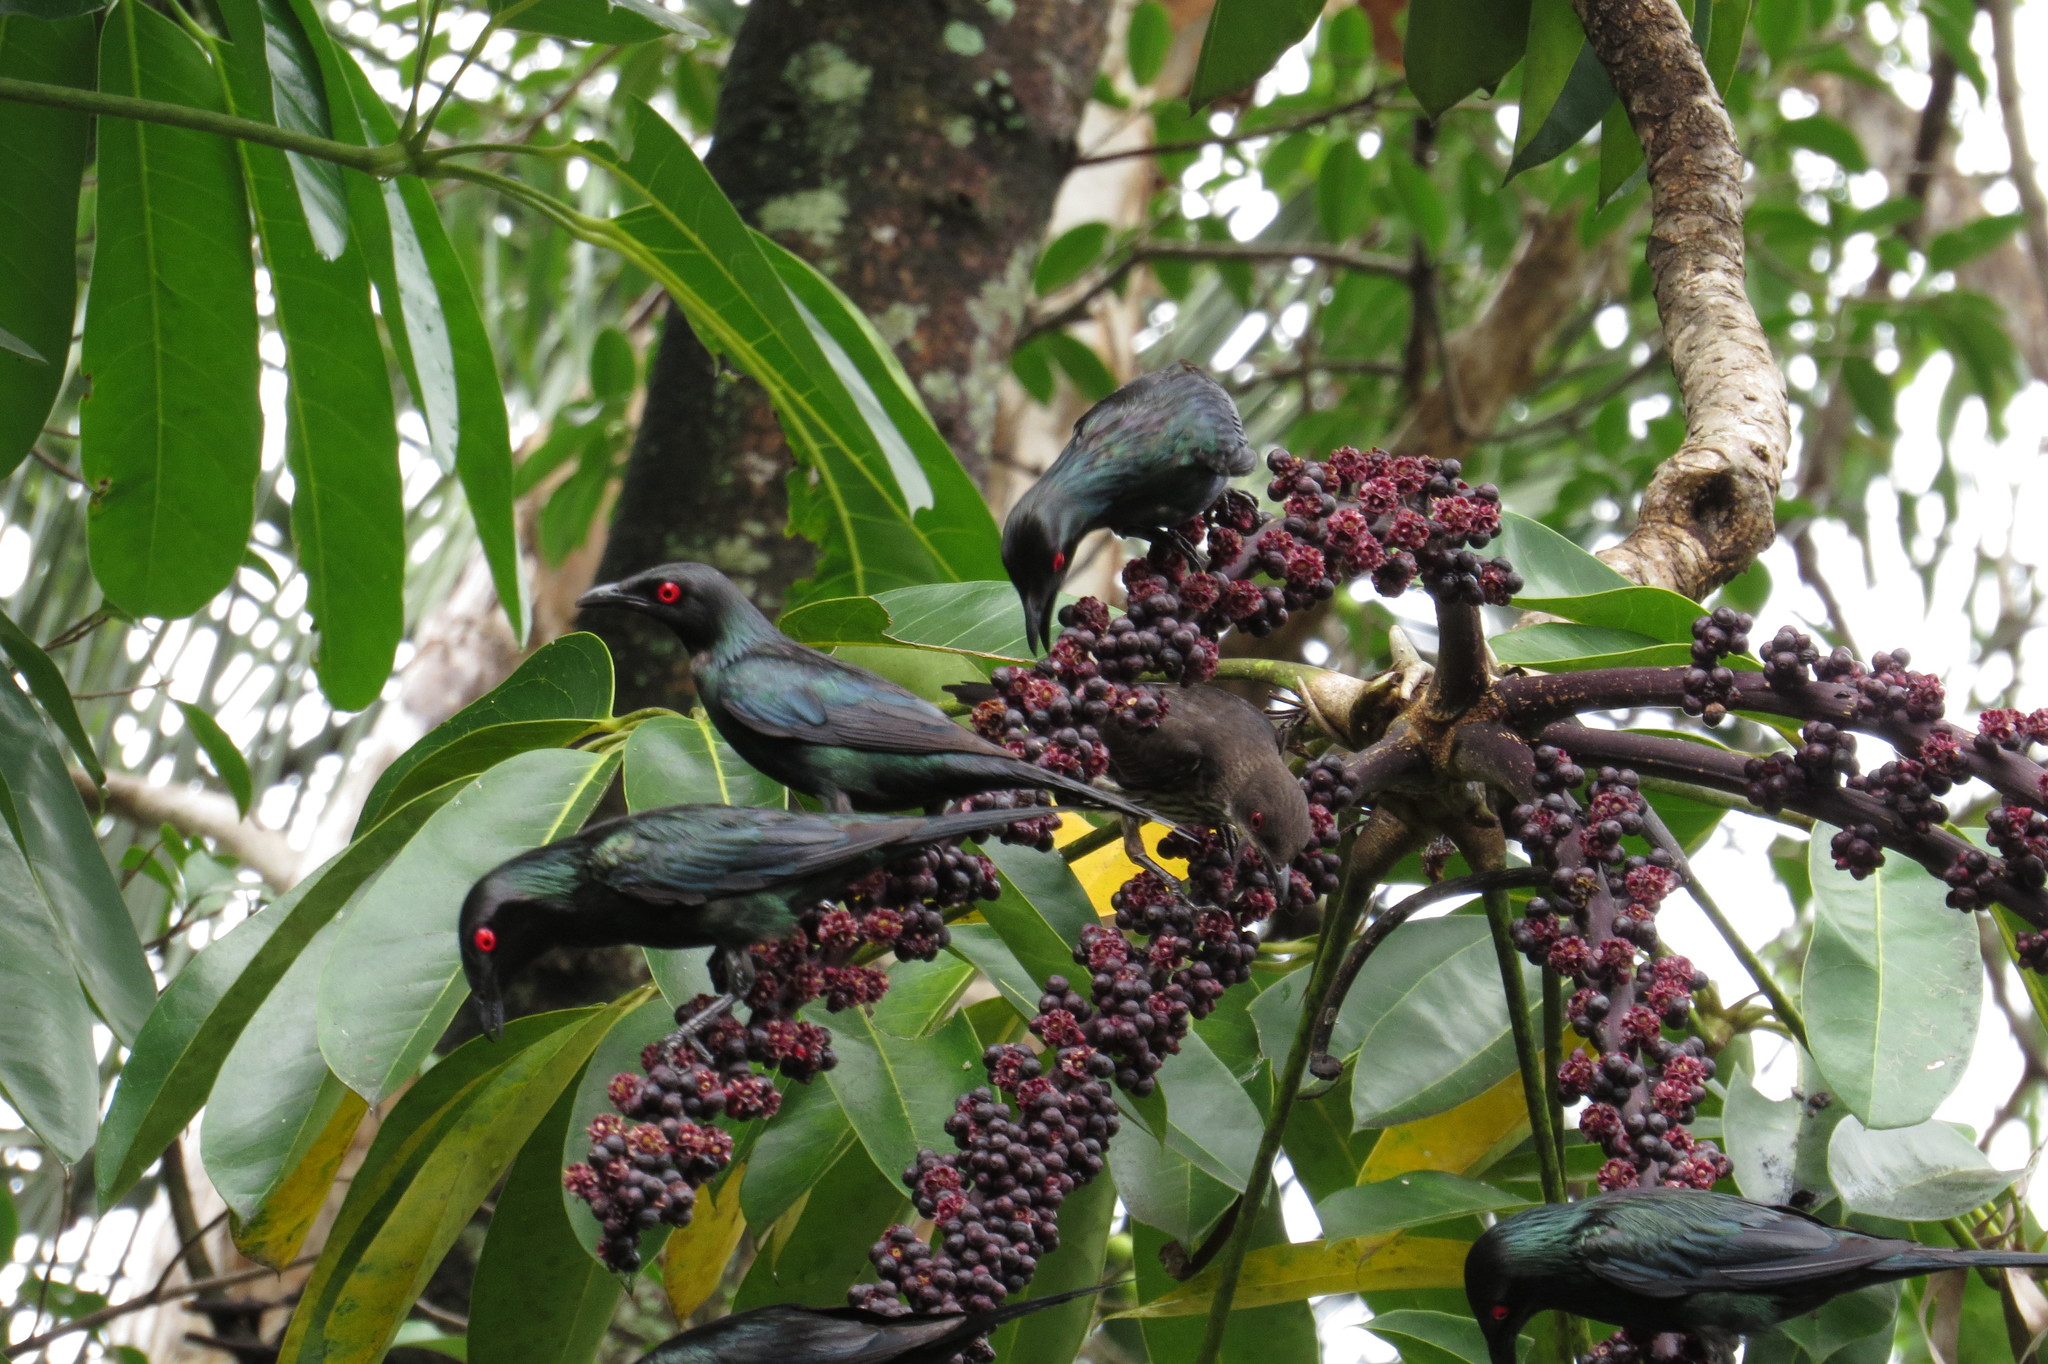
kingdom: Plantae
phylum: Tracheophyta
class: Magnoliopsida
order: Apiales
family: Araliaceae
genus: Heptapleurum
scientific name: Heptapleurum actinophyllum
